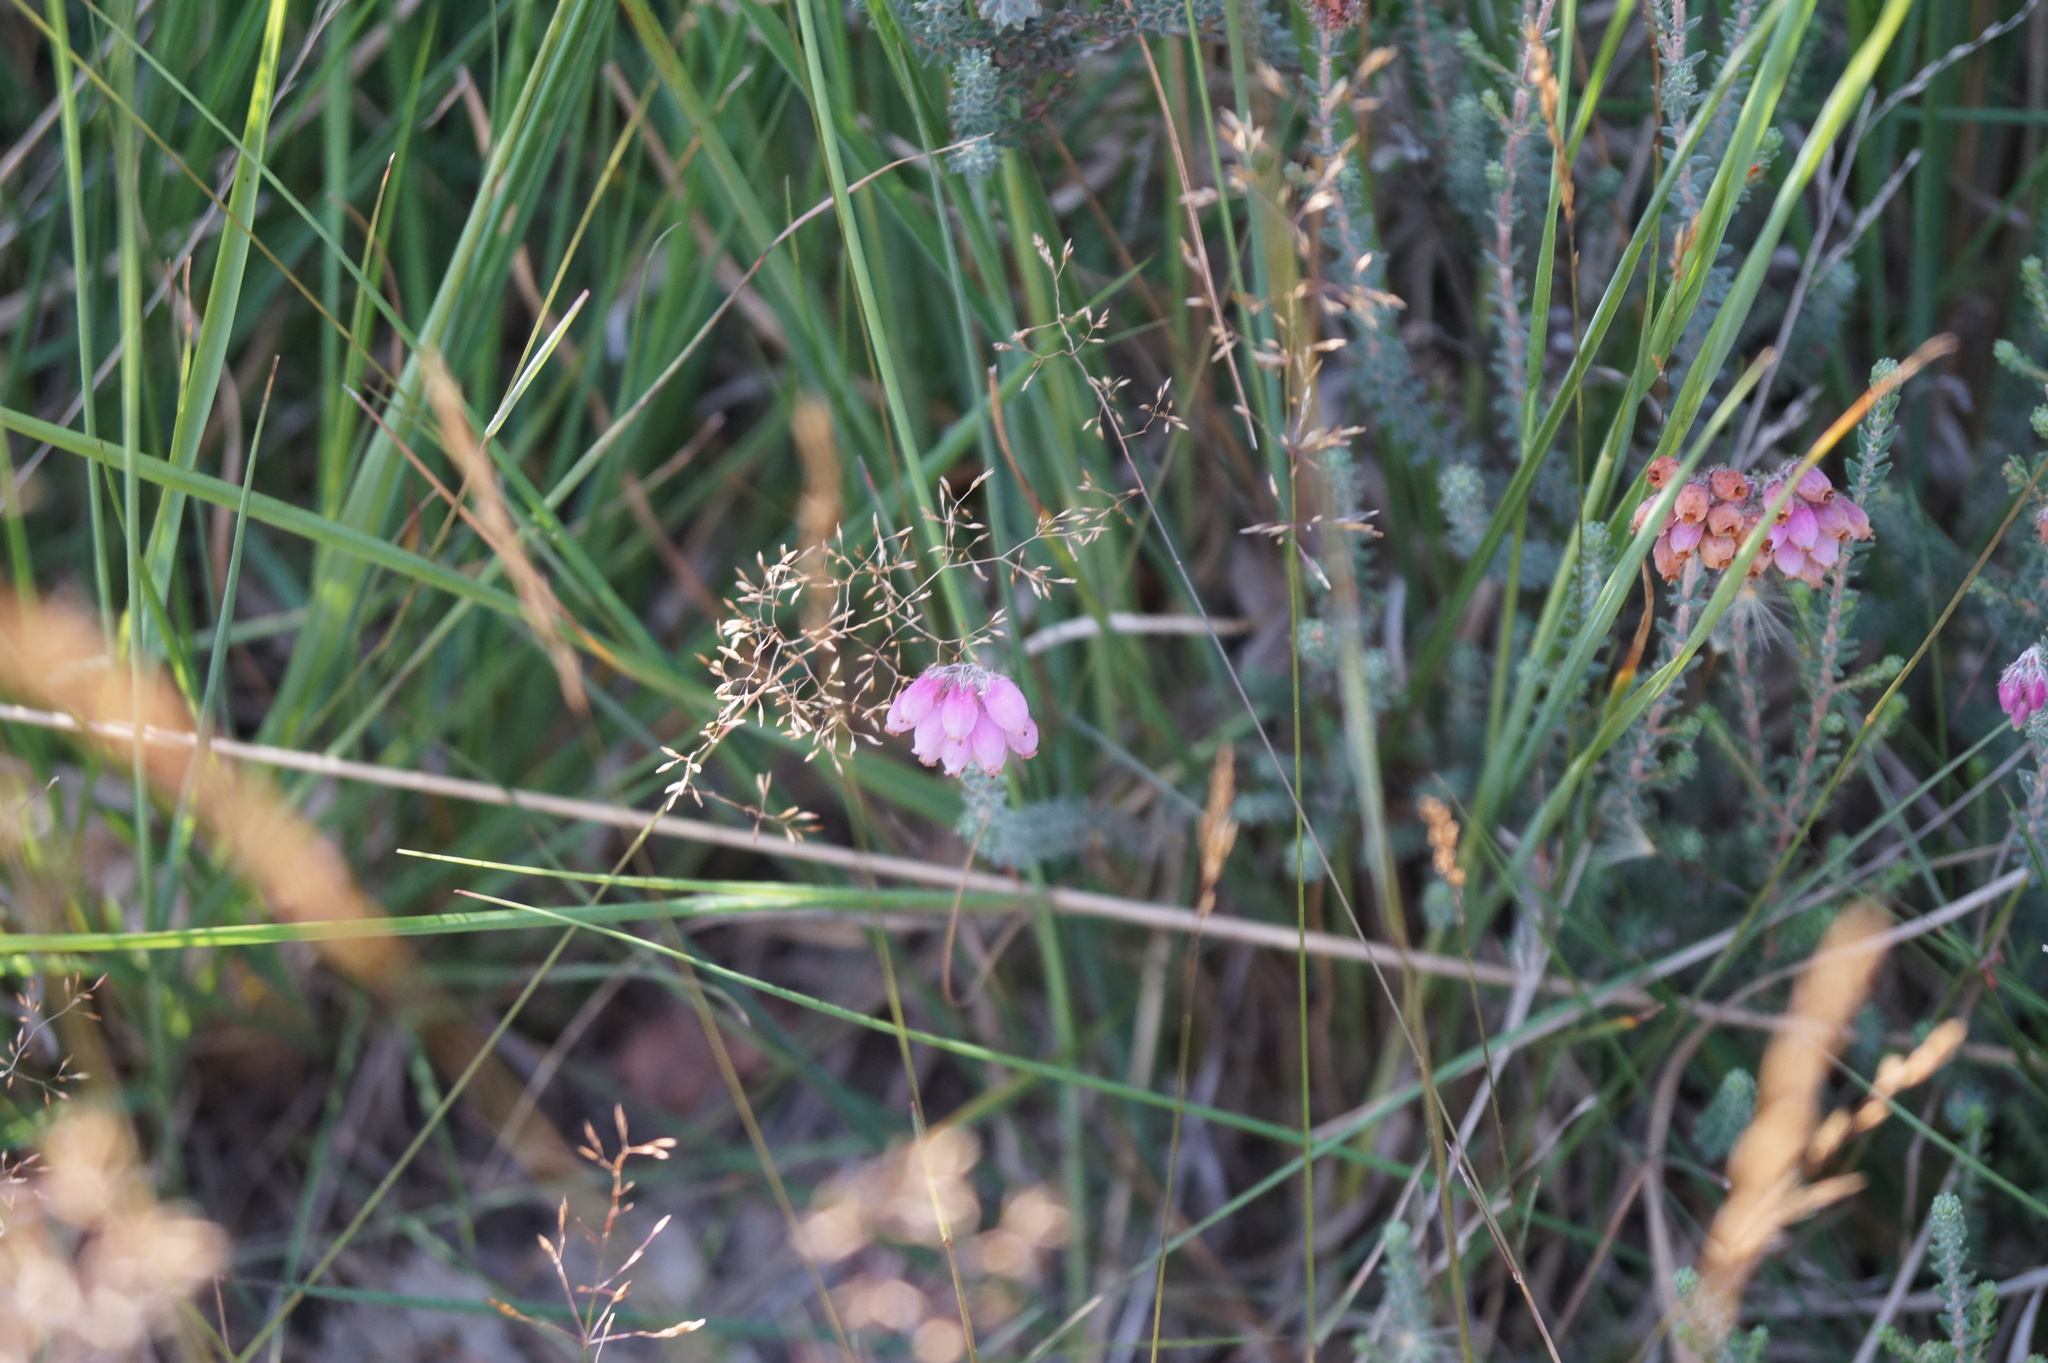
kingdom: Plantae
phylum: Tracheophyta
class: Magnoliopsida
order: Ericales
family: Ericaceae
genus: Erica
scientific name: Erica tetralix
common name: Cross-leaved heath
